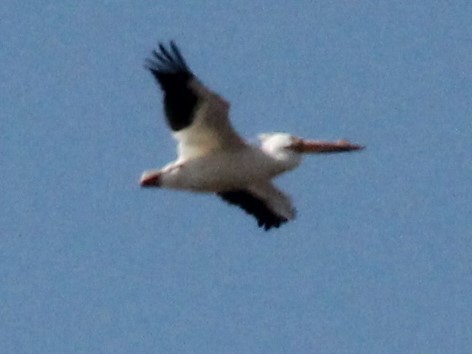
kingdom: Animalia
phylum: Chordata
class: Aves
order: Pelecaniformes
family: Pelecanidae
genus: Pelecanus
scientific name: Pelecanus erythrorhynchos
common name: American white pelican
